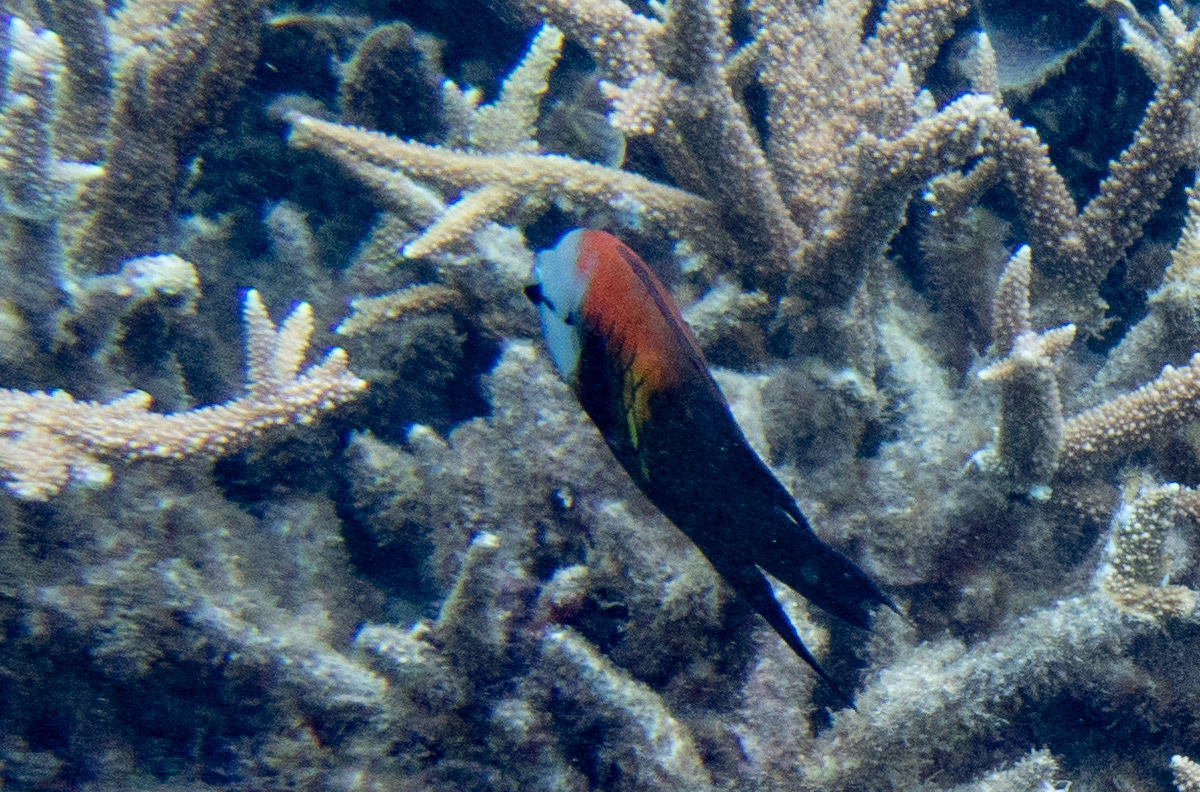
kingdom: Animalia
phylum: Chordata
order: Perciformes
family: Labridae
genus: Epibulus
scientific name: Epibulus insidiator
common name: Slingjaw wrasse
